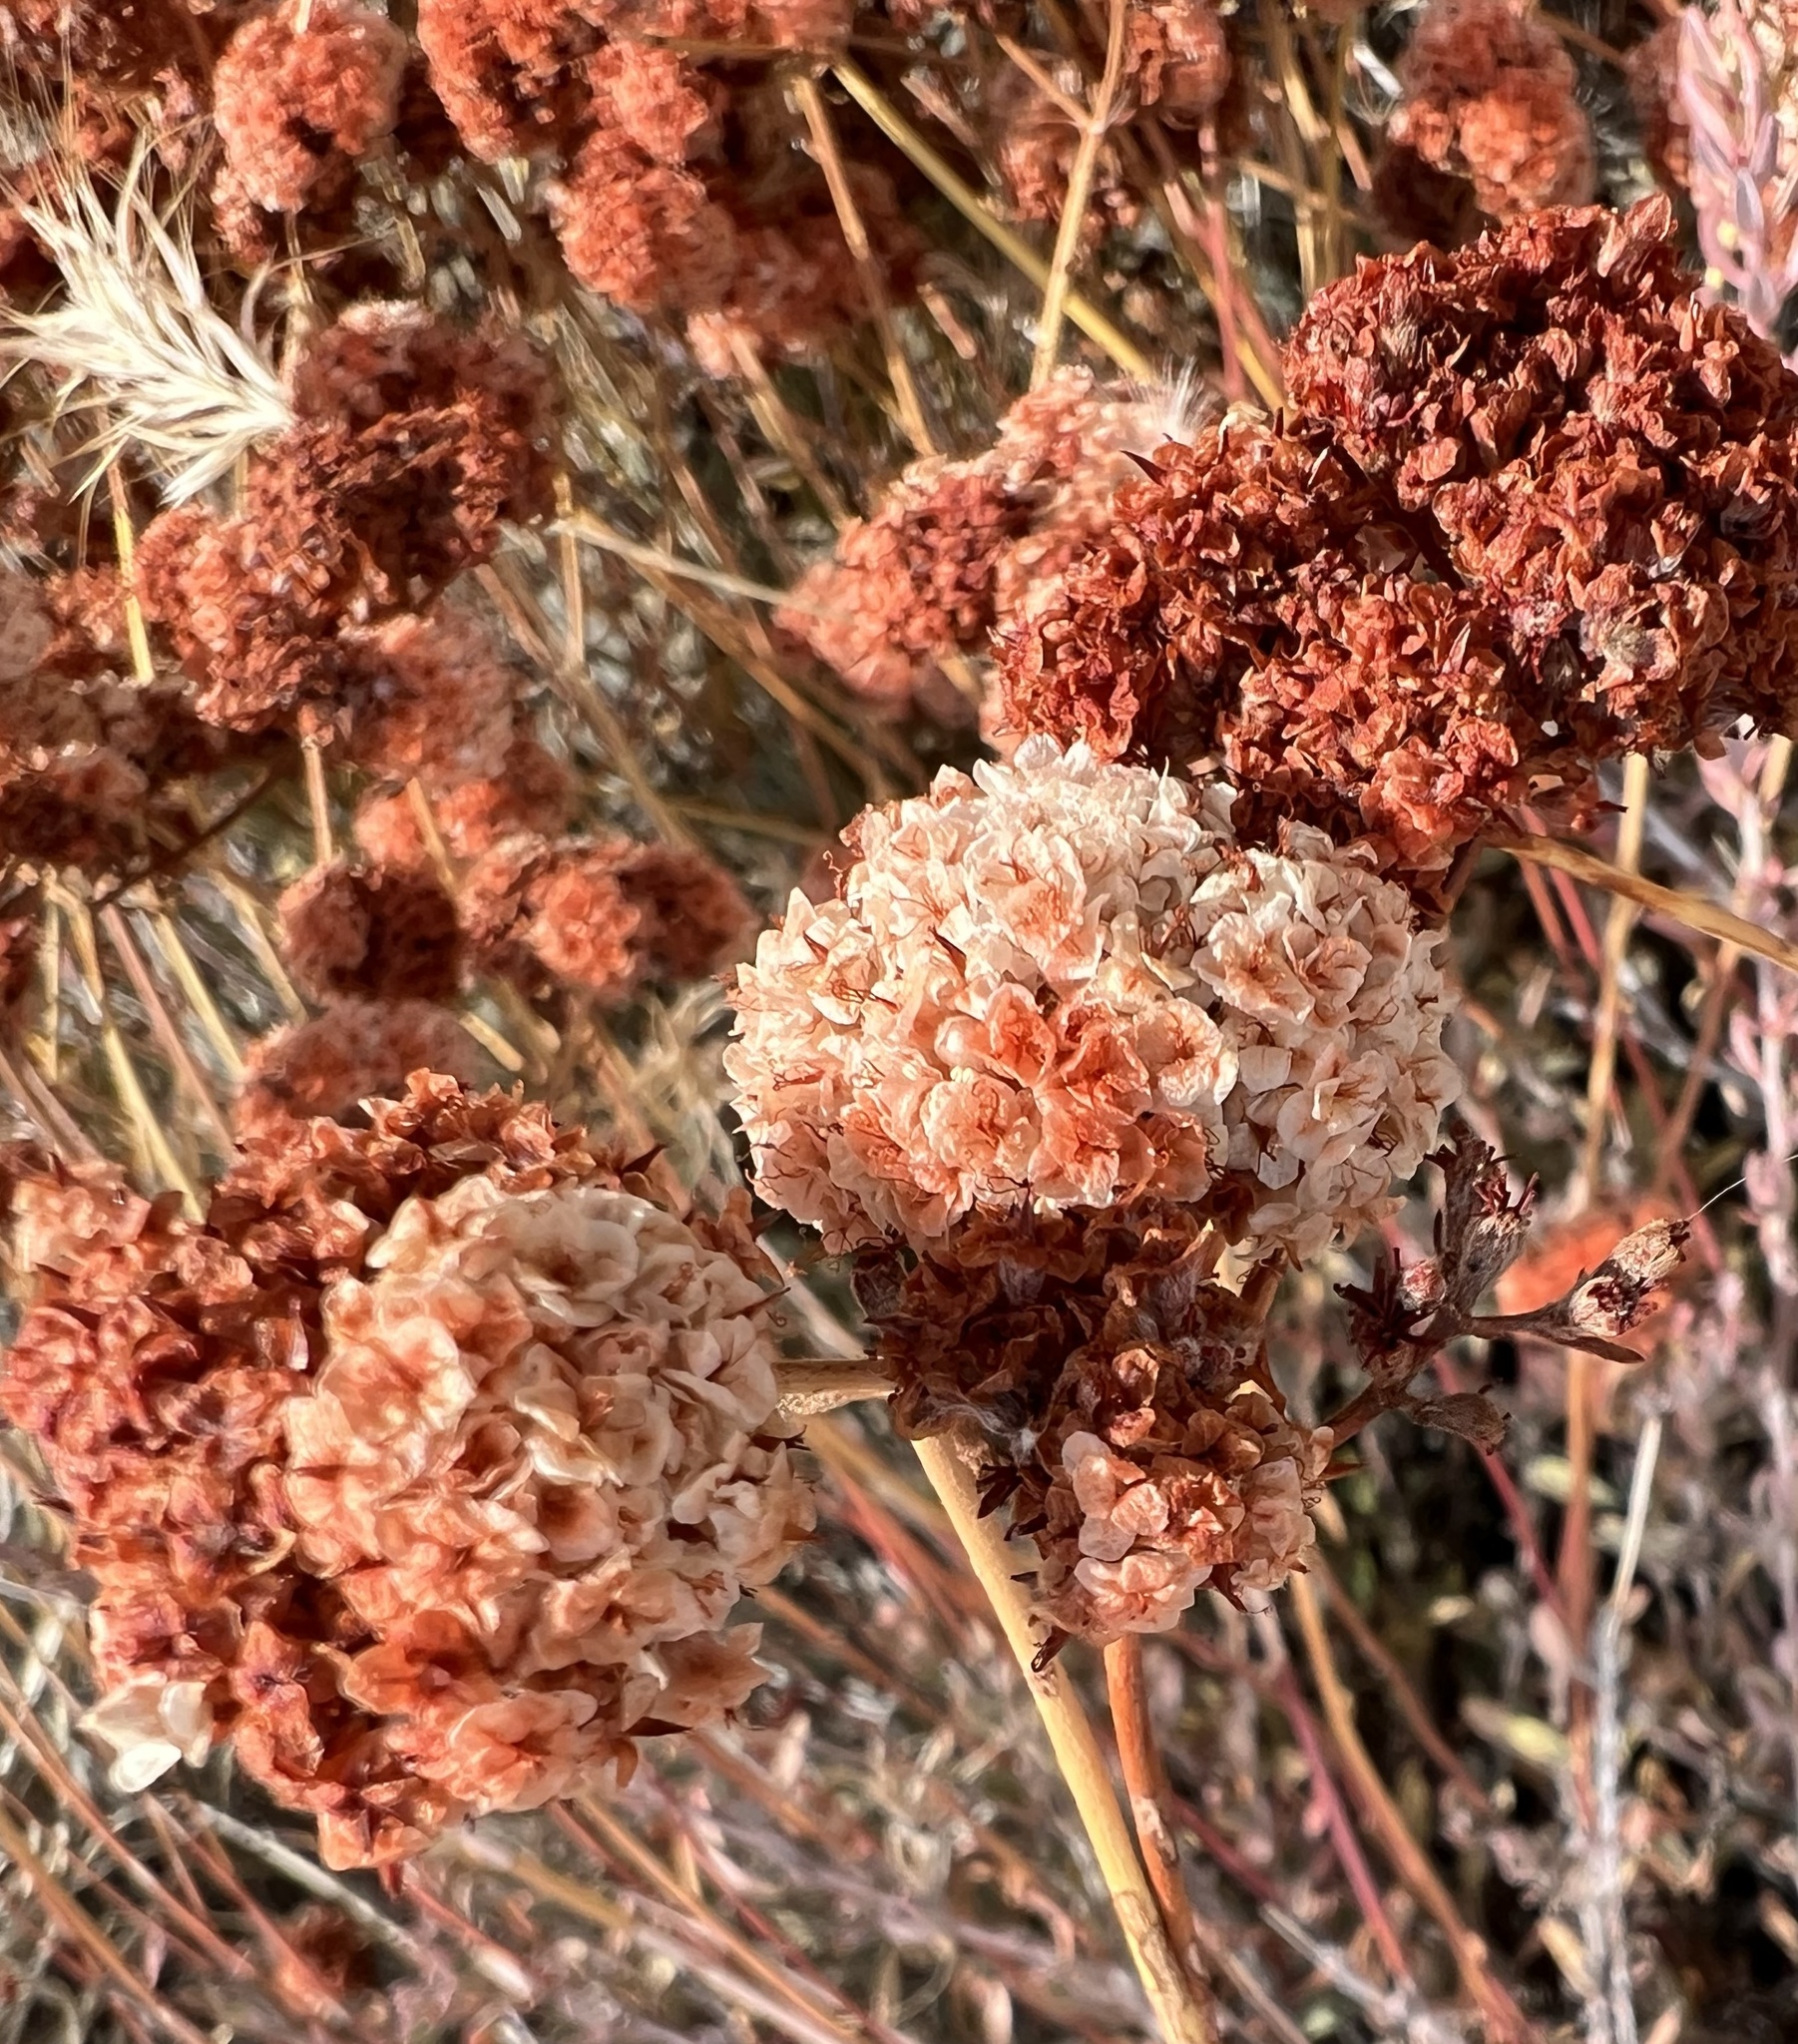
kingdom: Plantae
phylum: Tracheophyta
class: Magnoliopsida
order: Caryophyllales
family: Polygonaceae
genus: Eriogonum
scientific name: Eriogonum fasciculatum
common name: California wild buckwheat
